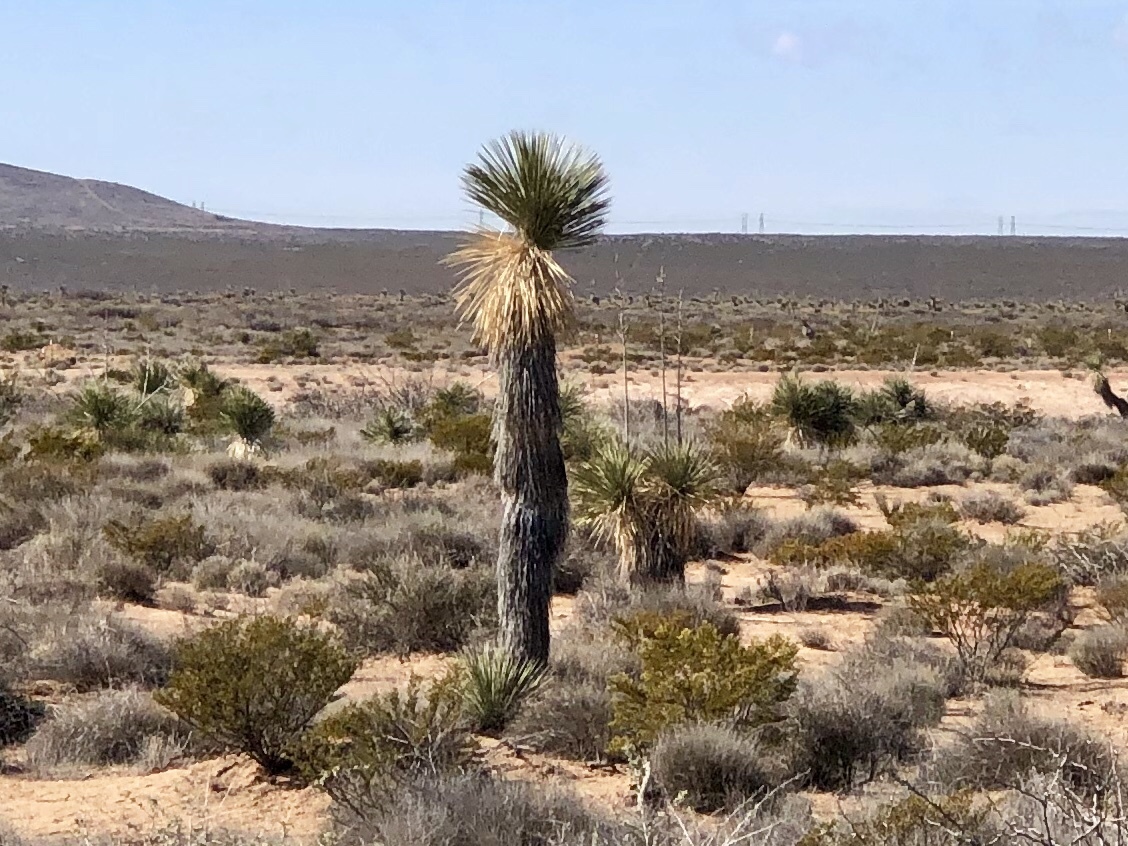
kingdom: Plantae
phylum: Tracheophyta
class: Liliopsida
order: Asparagales
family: Asparagaceae
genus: Yucca
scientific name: Yucca elata
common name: Palmella
